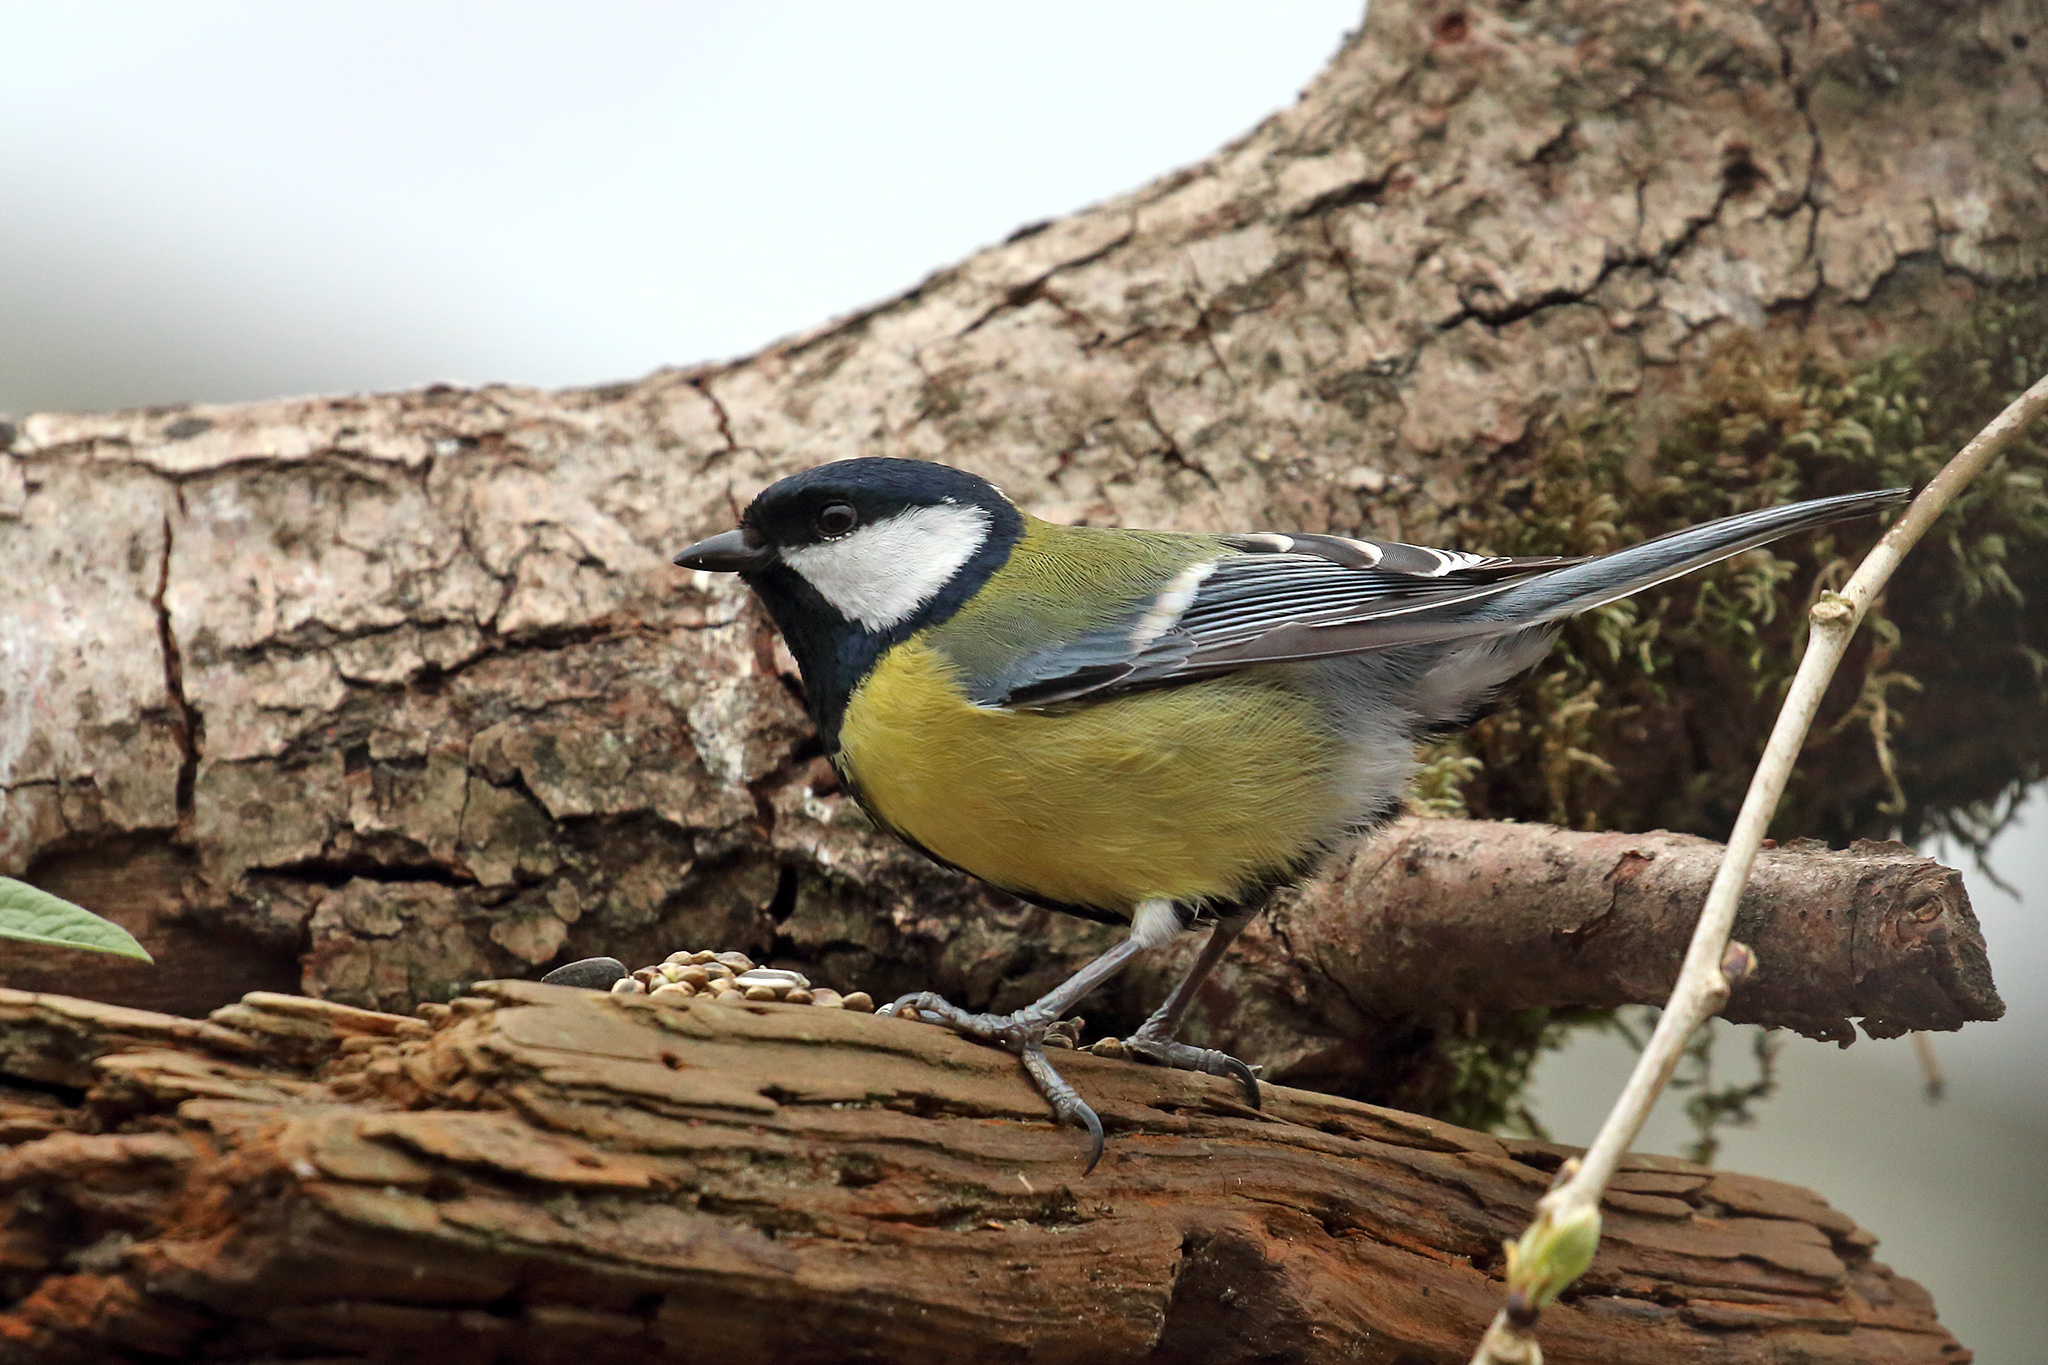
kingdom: Animalia
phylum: Chordata
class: Aves
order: Passeriformes
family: Paridae
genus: Parus
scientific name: Parus major
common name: Great tit
